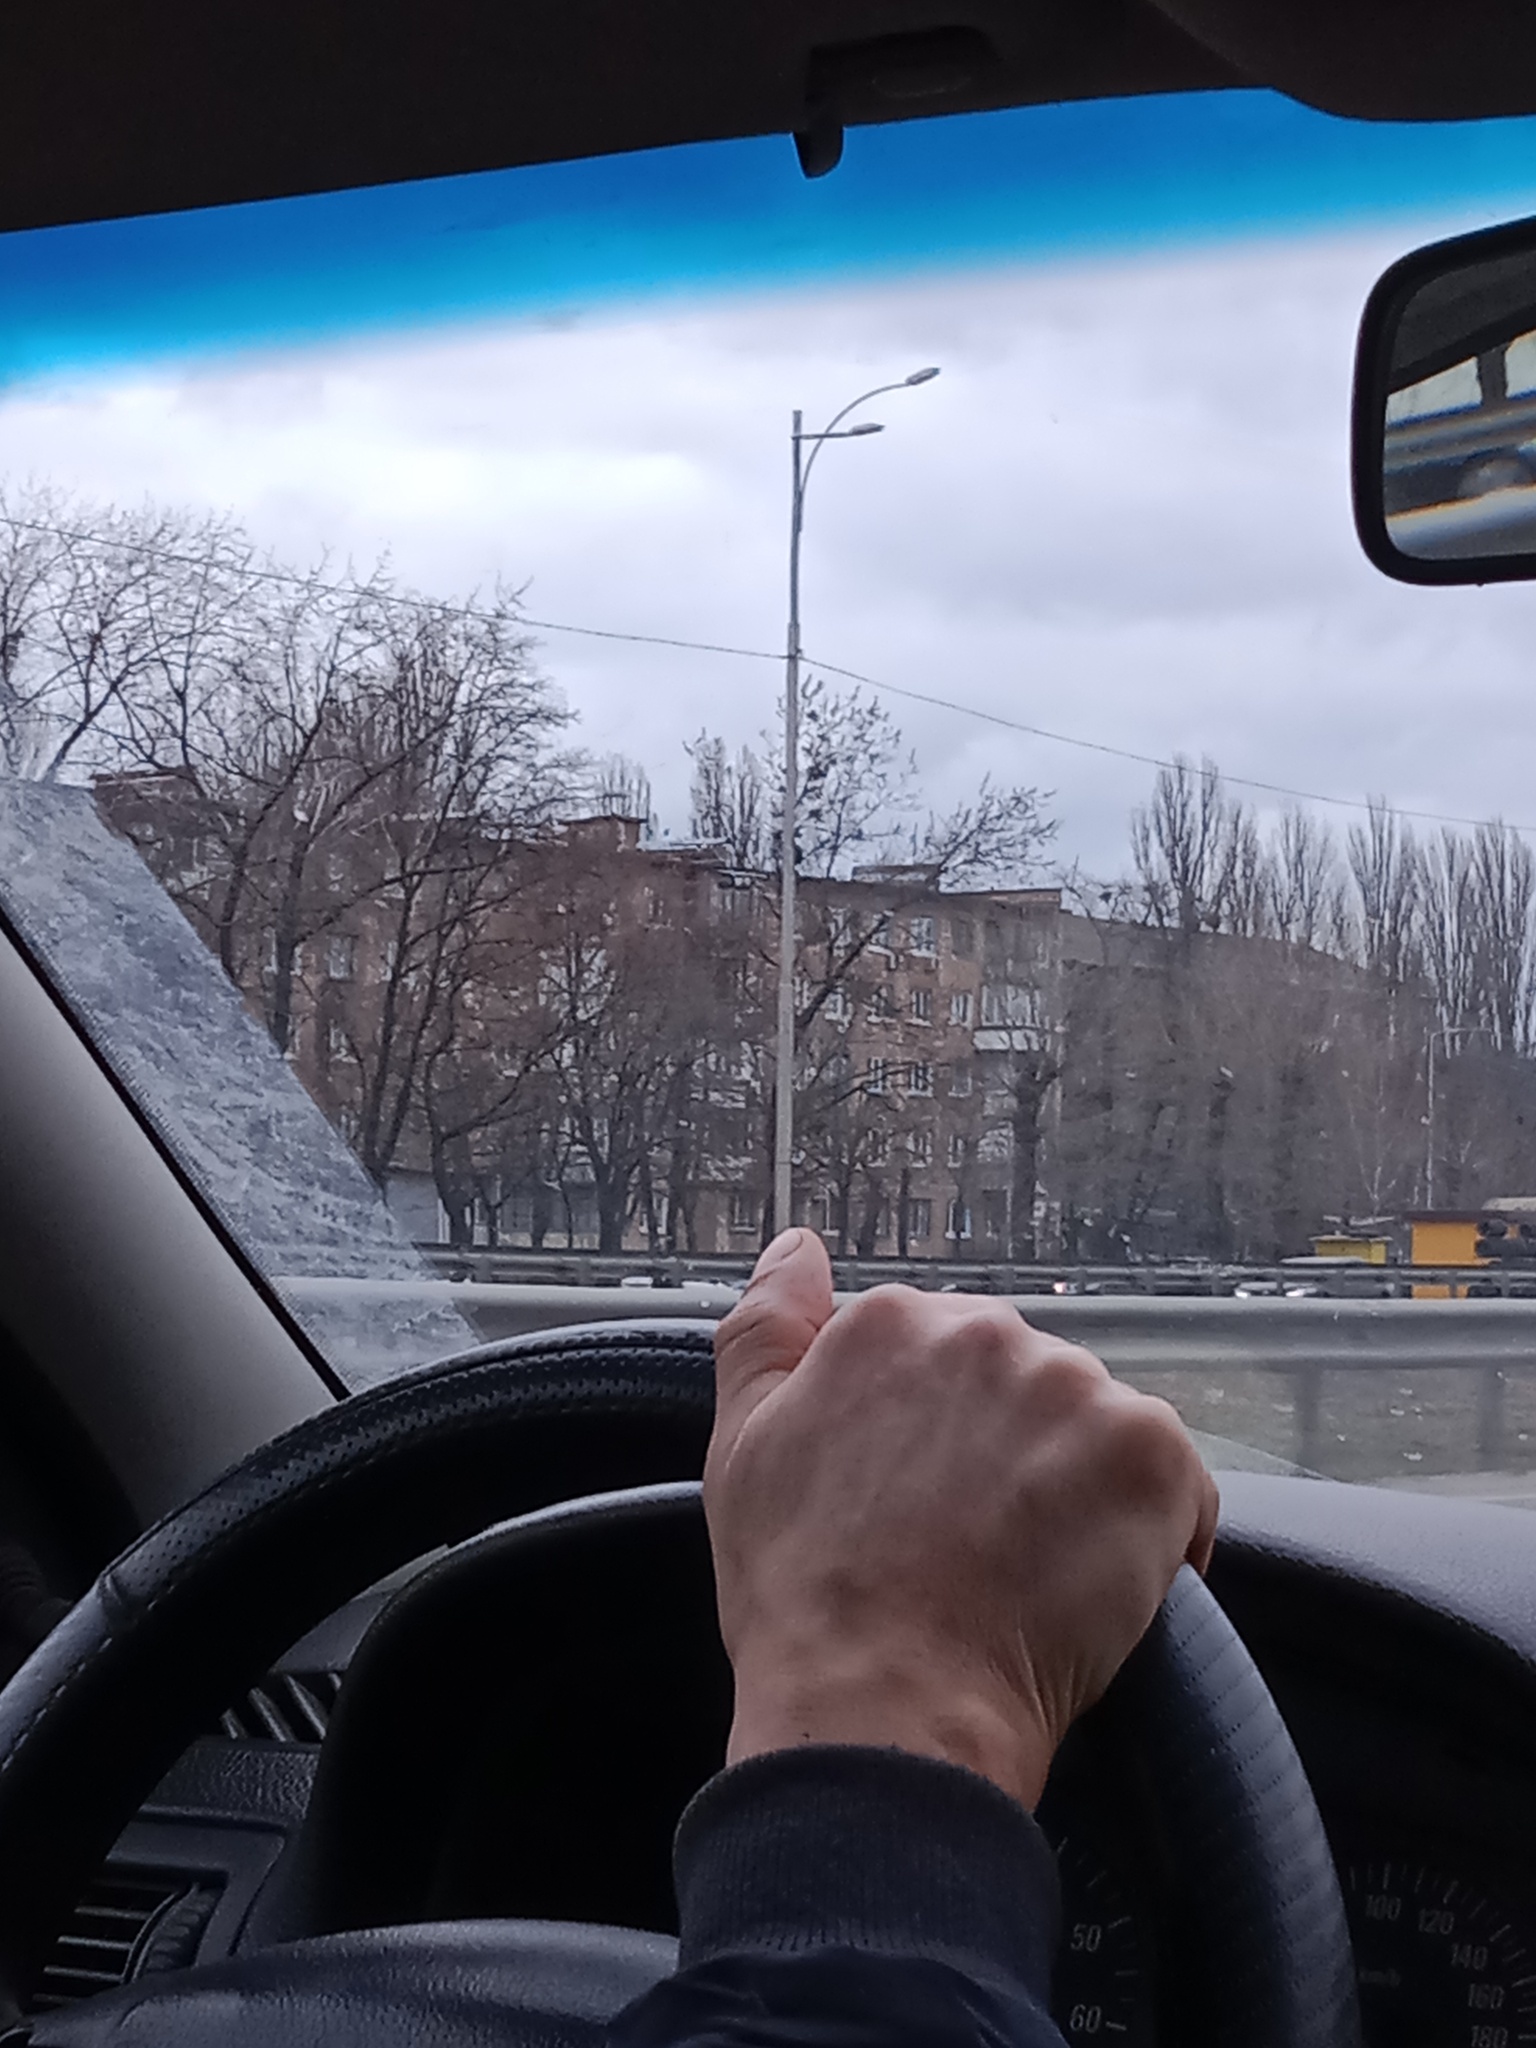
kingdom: Plantae
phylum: Tracheophyta
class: Magnoliopsida
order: Santalales
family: Viscaceae
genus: Viscum
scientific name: Viscum album
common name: Mistletoe
